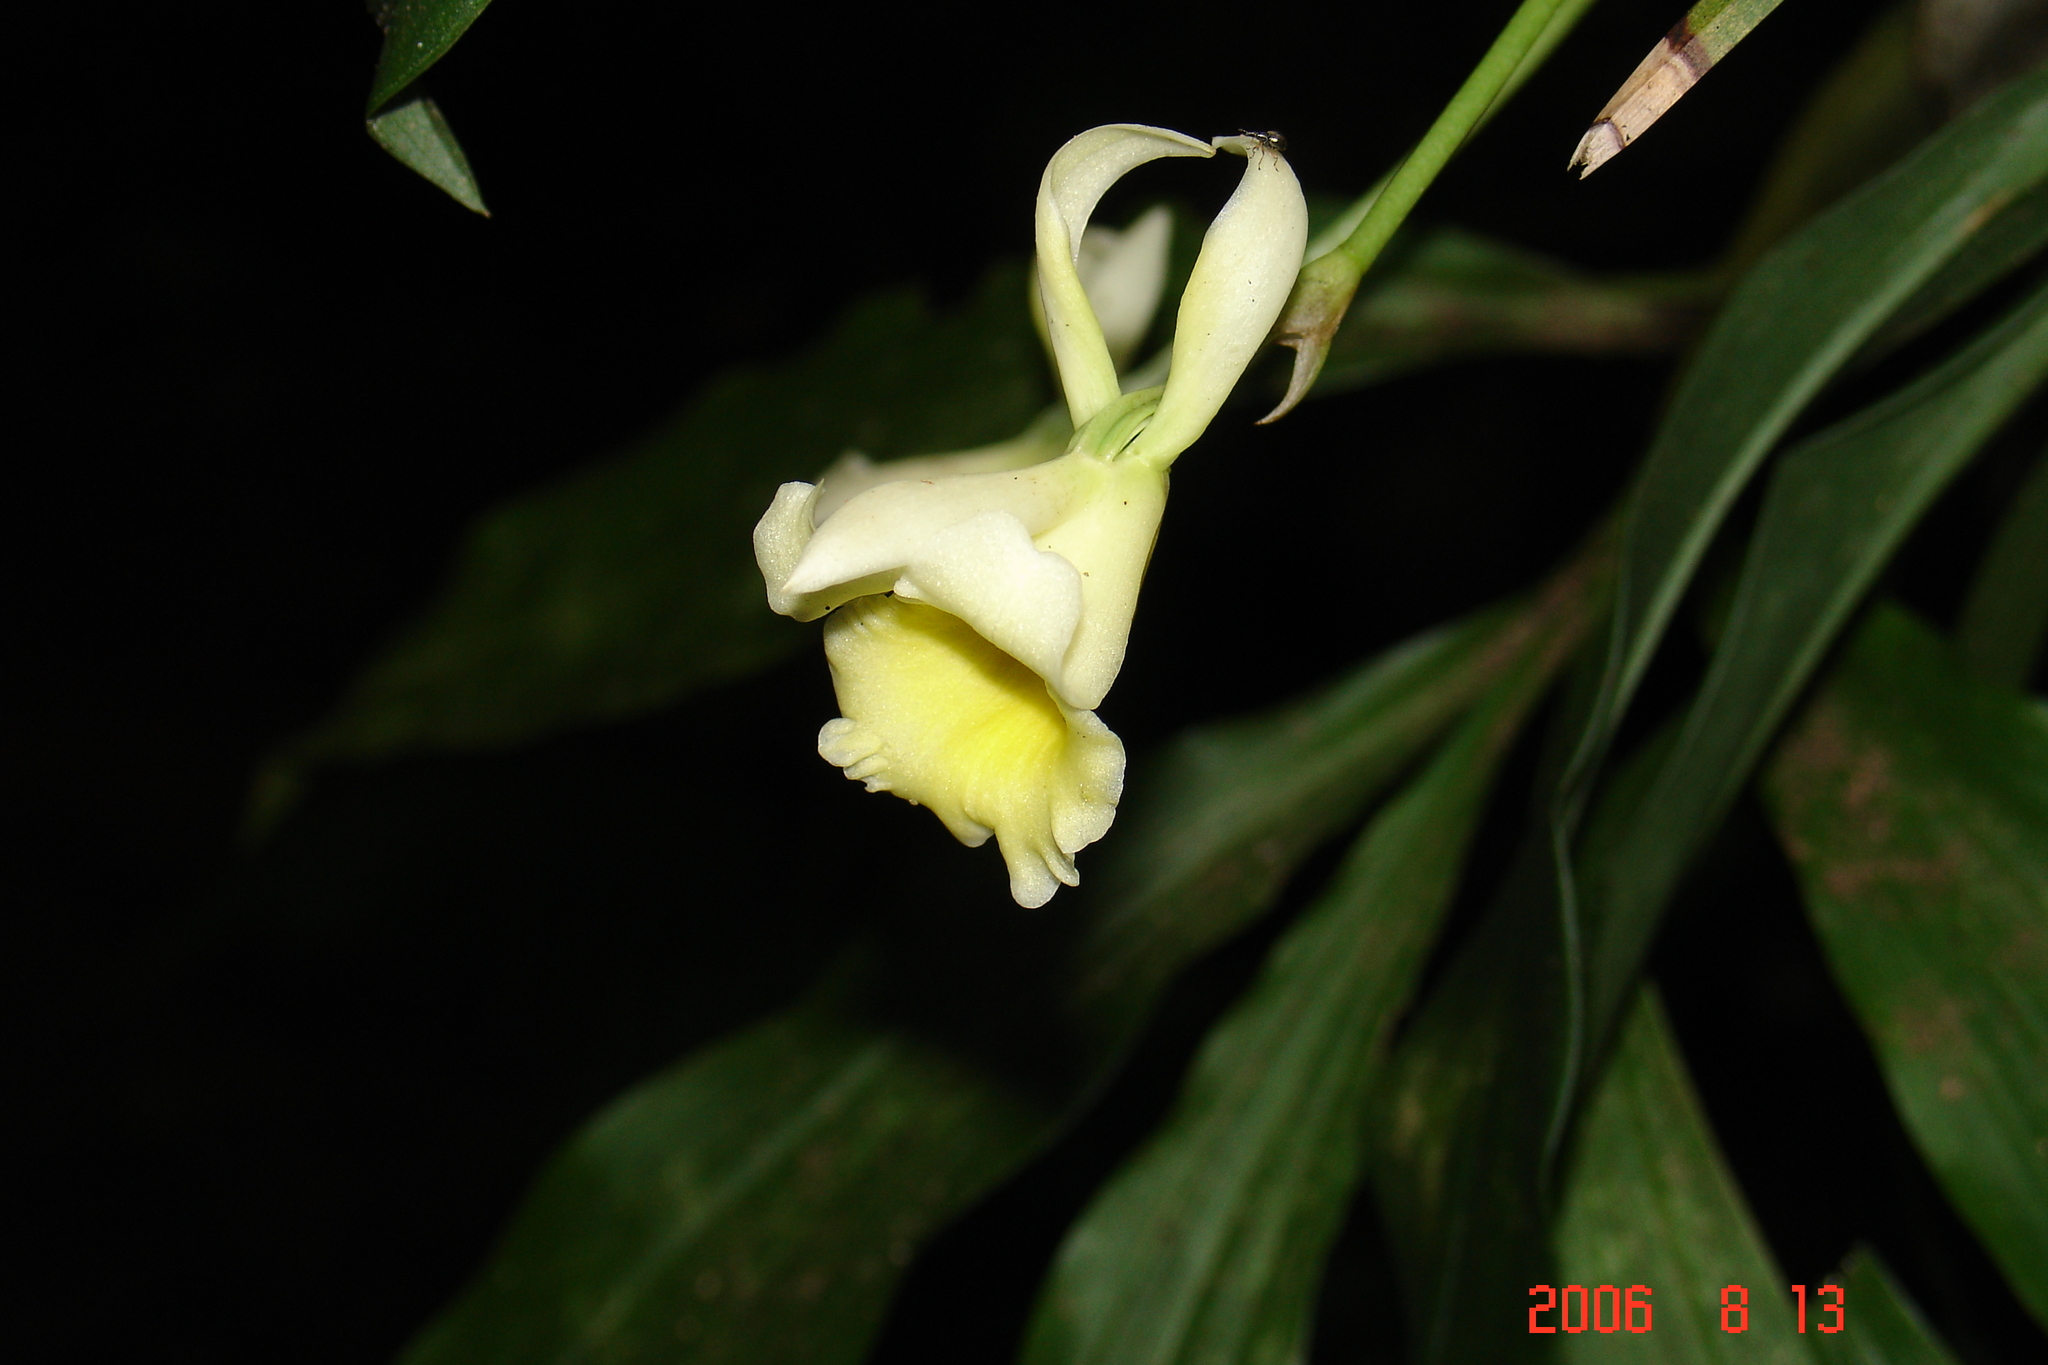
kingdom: Plantae
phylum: Tracheophyta
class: Liliopsida
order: Asparagales
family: Orchidaceae
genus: Stenotyla
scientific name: Stenotyla lendyana
